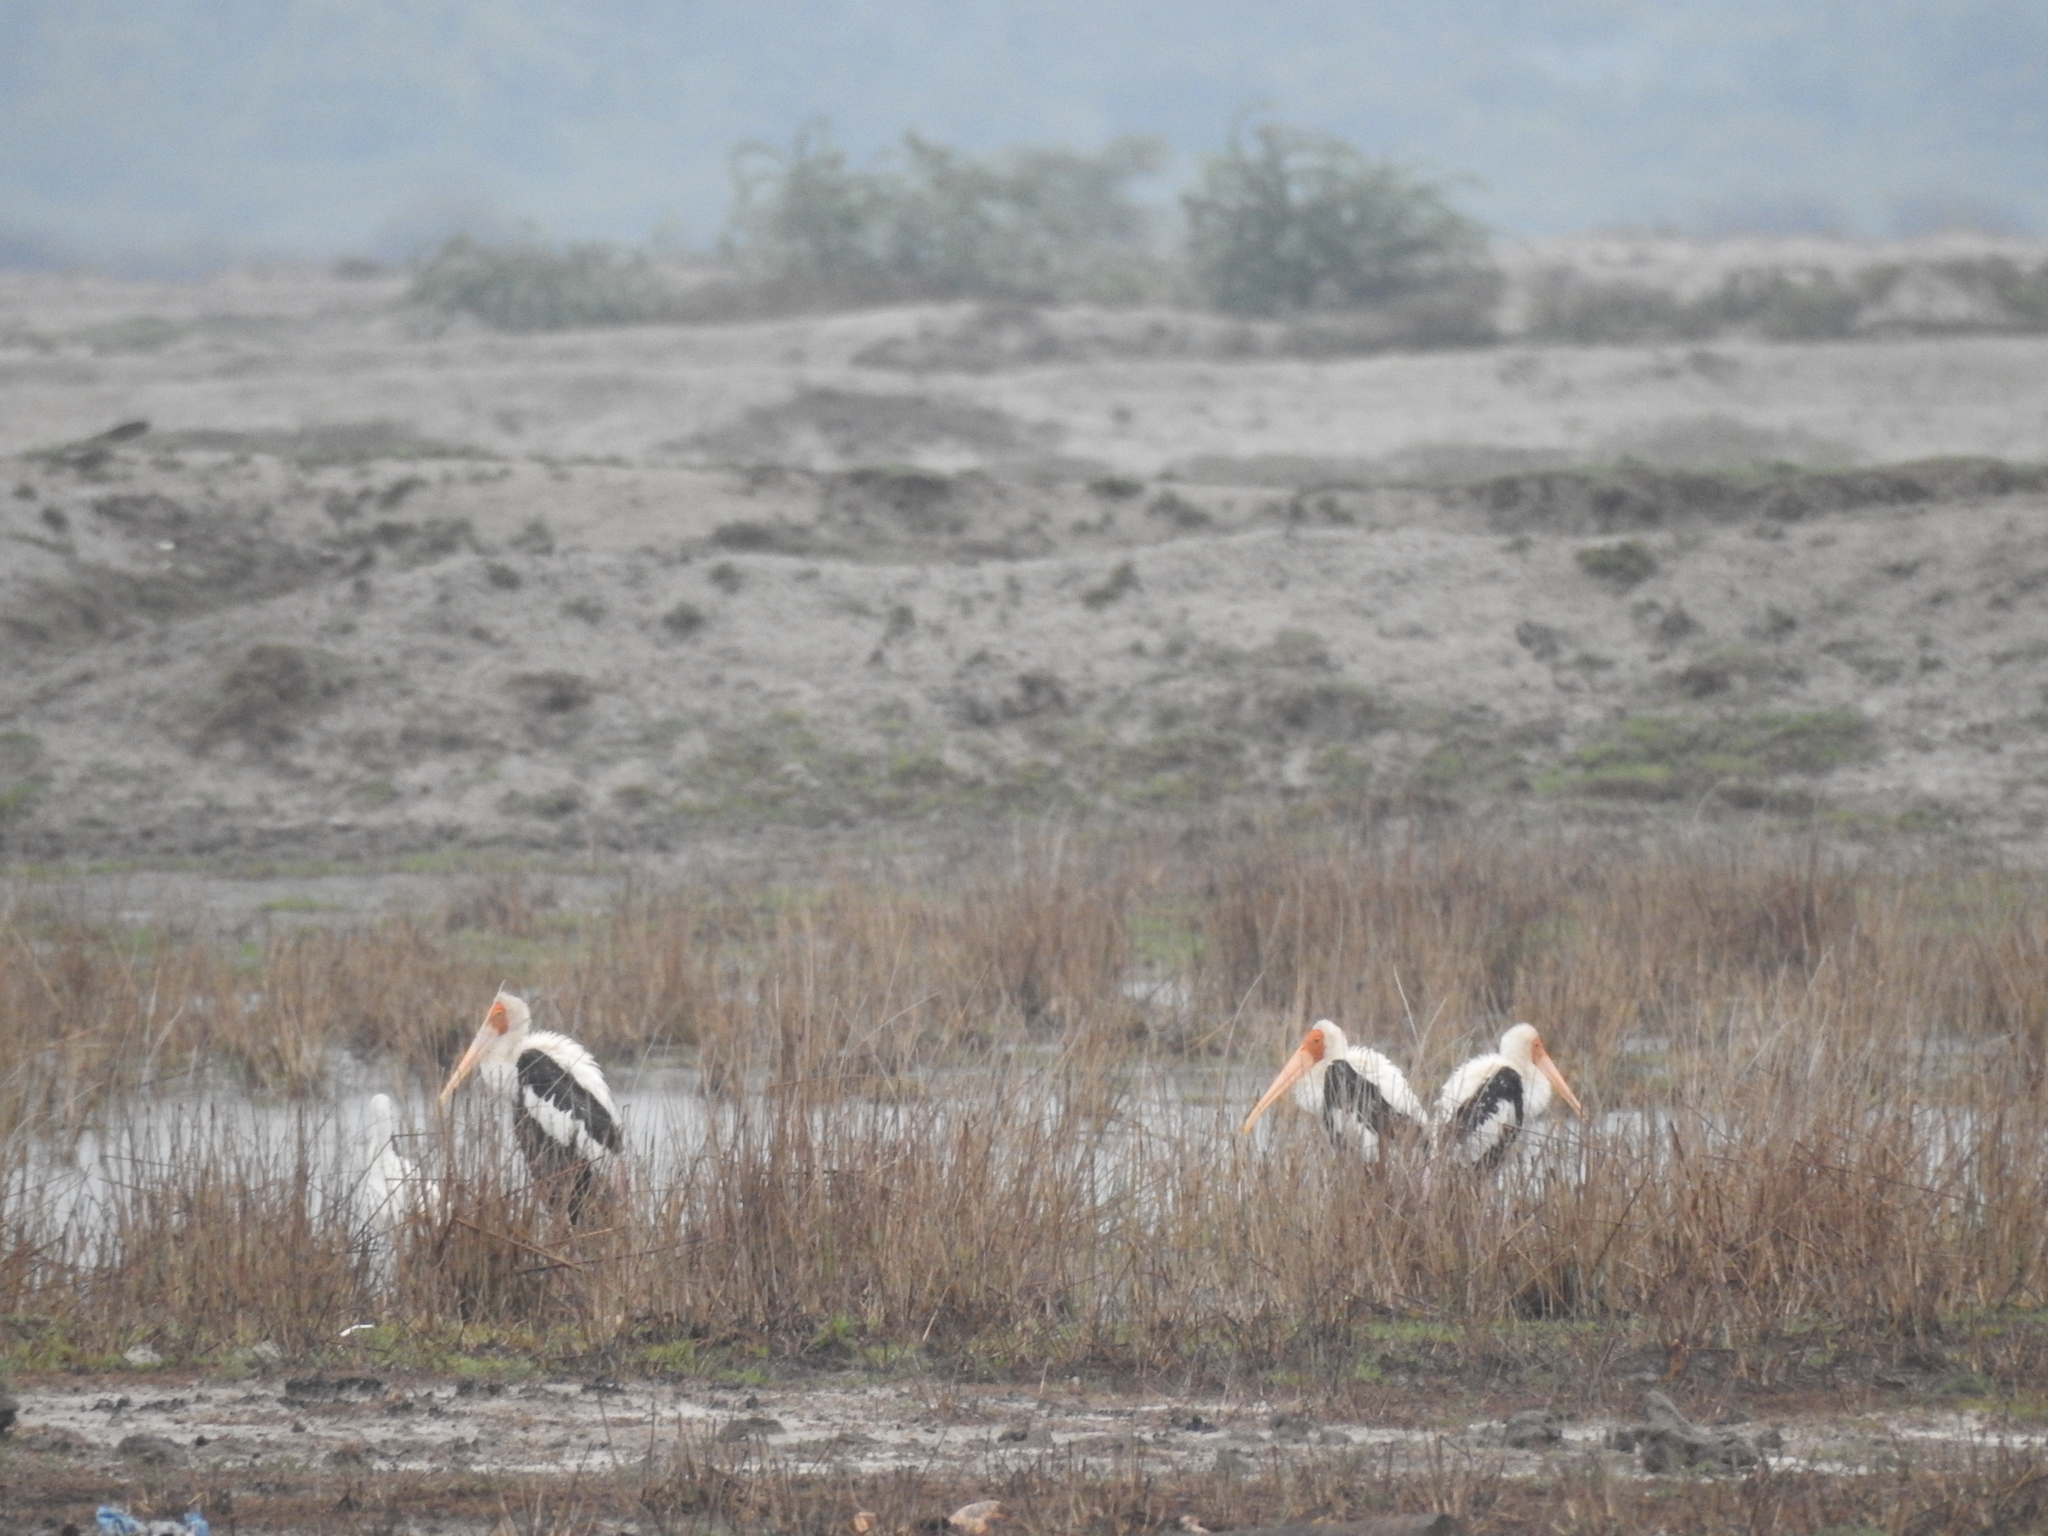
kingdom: Animalia
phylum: Chordata
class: Aves
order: Ciconiiformes
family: Ciconiidae
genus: Mycteria
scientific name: Mycteria leucocephala
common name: Painted stork
